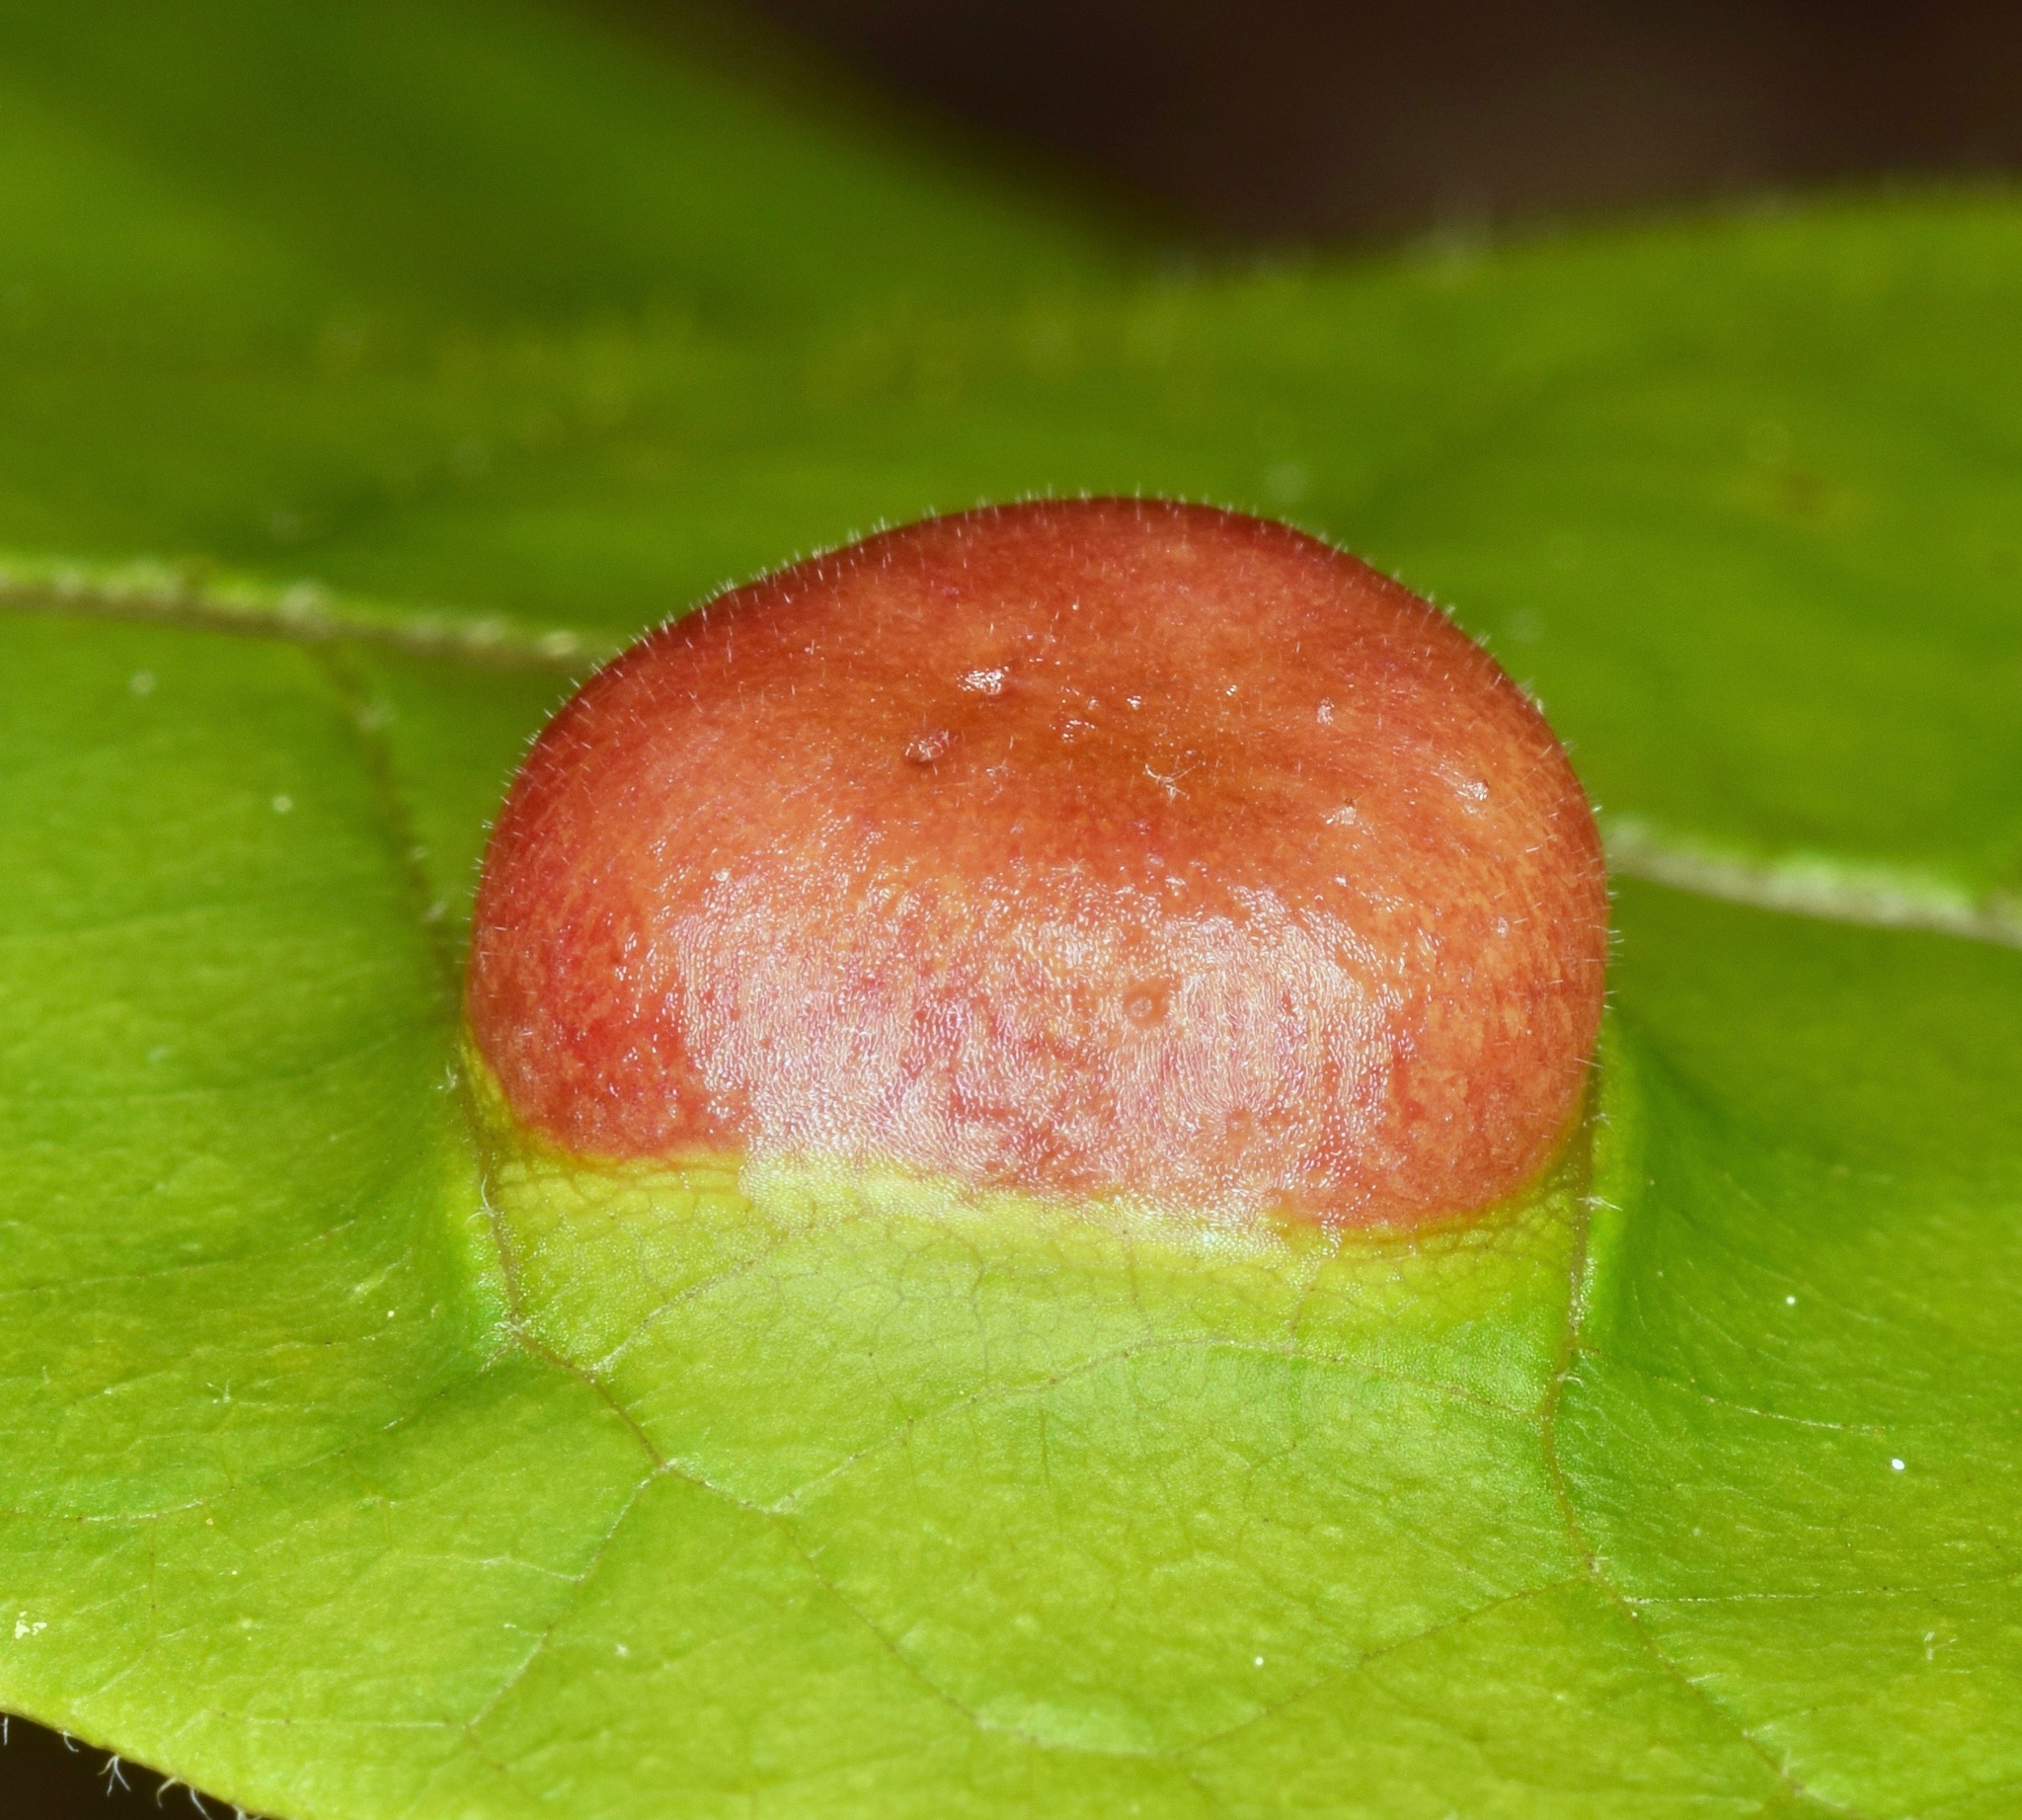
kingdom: Animalia
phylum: Arthropoda
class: Insecta
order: Hemiptera
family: Phylloxeridae
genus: Phylloxera
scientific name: Phylloxera caryae-globuli
